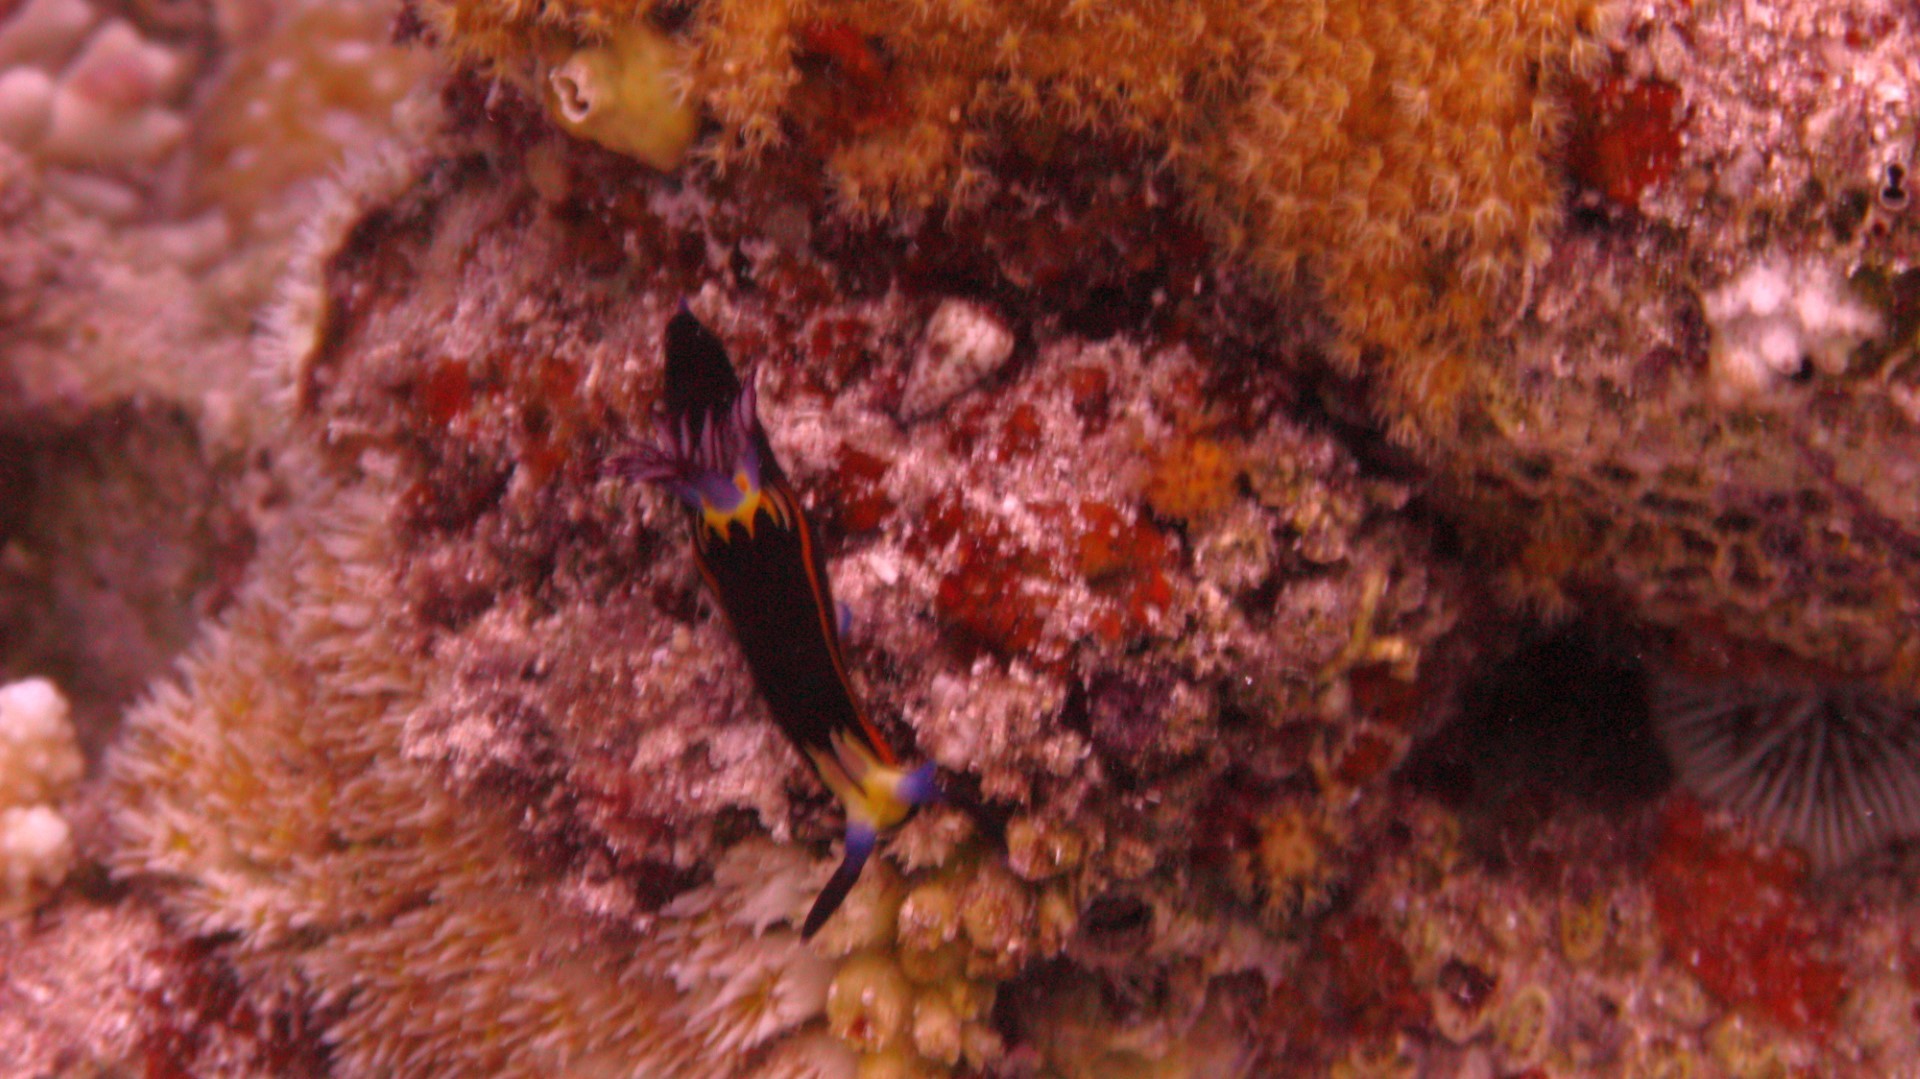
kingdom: Animalia
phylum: Mollusca
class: Gastropoda
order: Nudibranchia
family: Polyceridae
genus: Nembrotha
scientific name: Nembrotha megalocera
